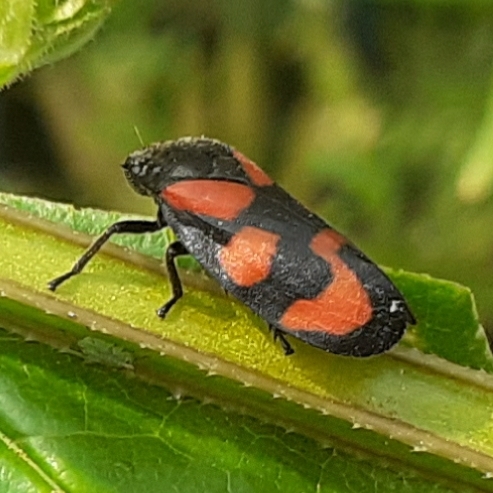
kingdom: Animalia
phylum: Arthropoda
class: Insecta
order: Hemiptera
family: Cercopidae
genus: Cercopis
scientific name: Cercopis vulnerata
